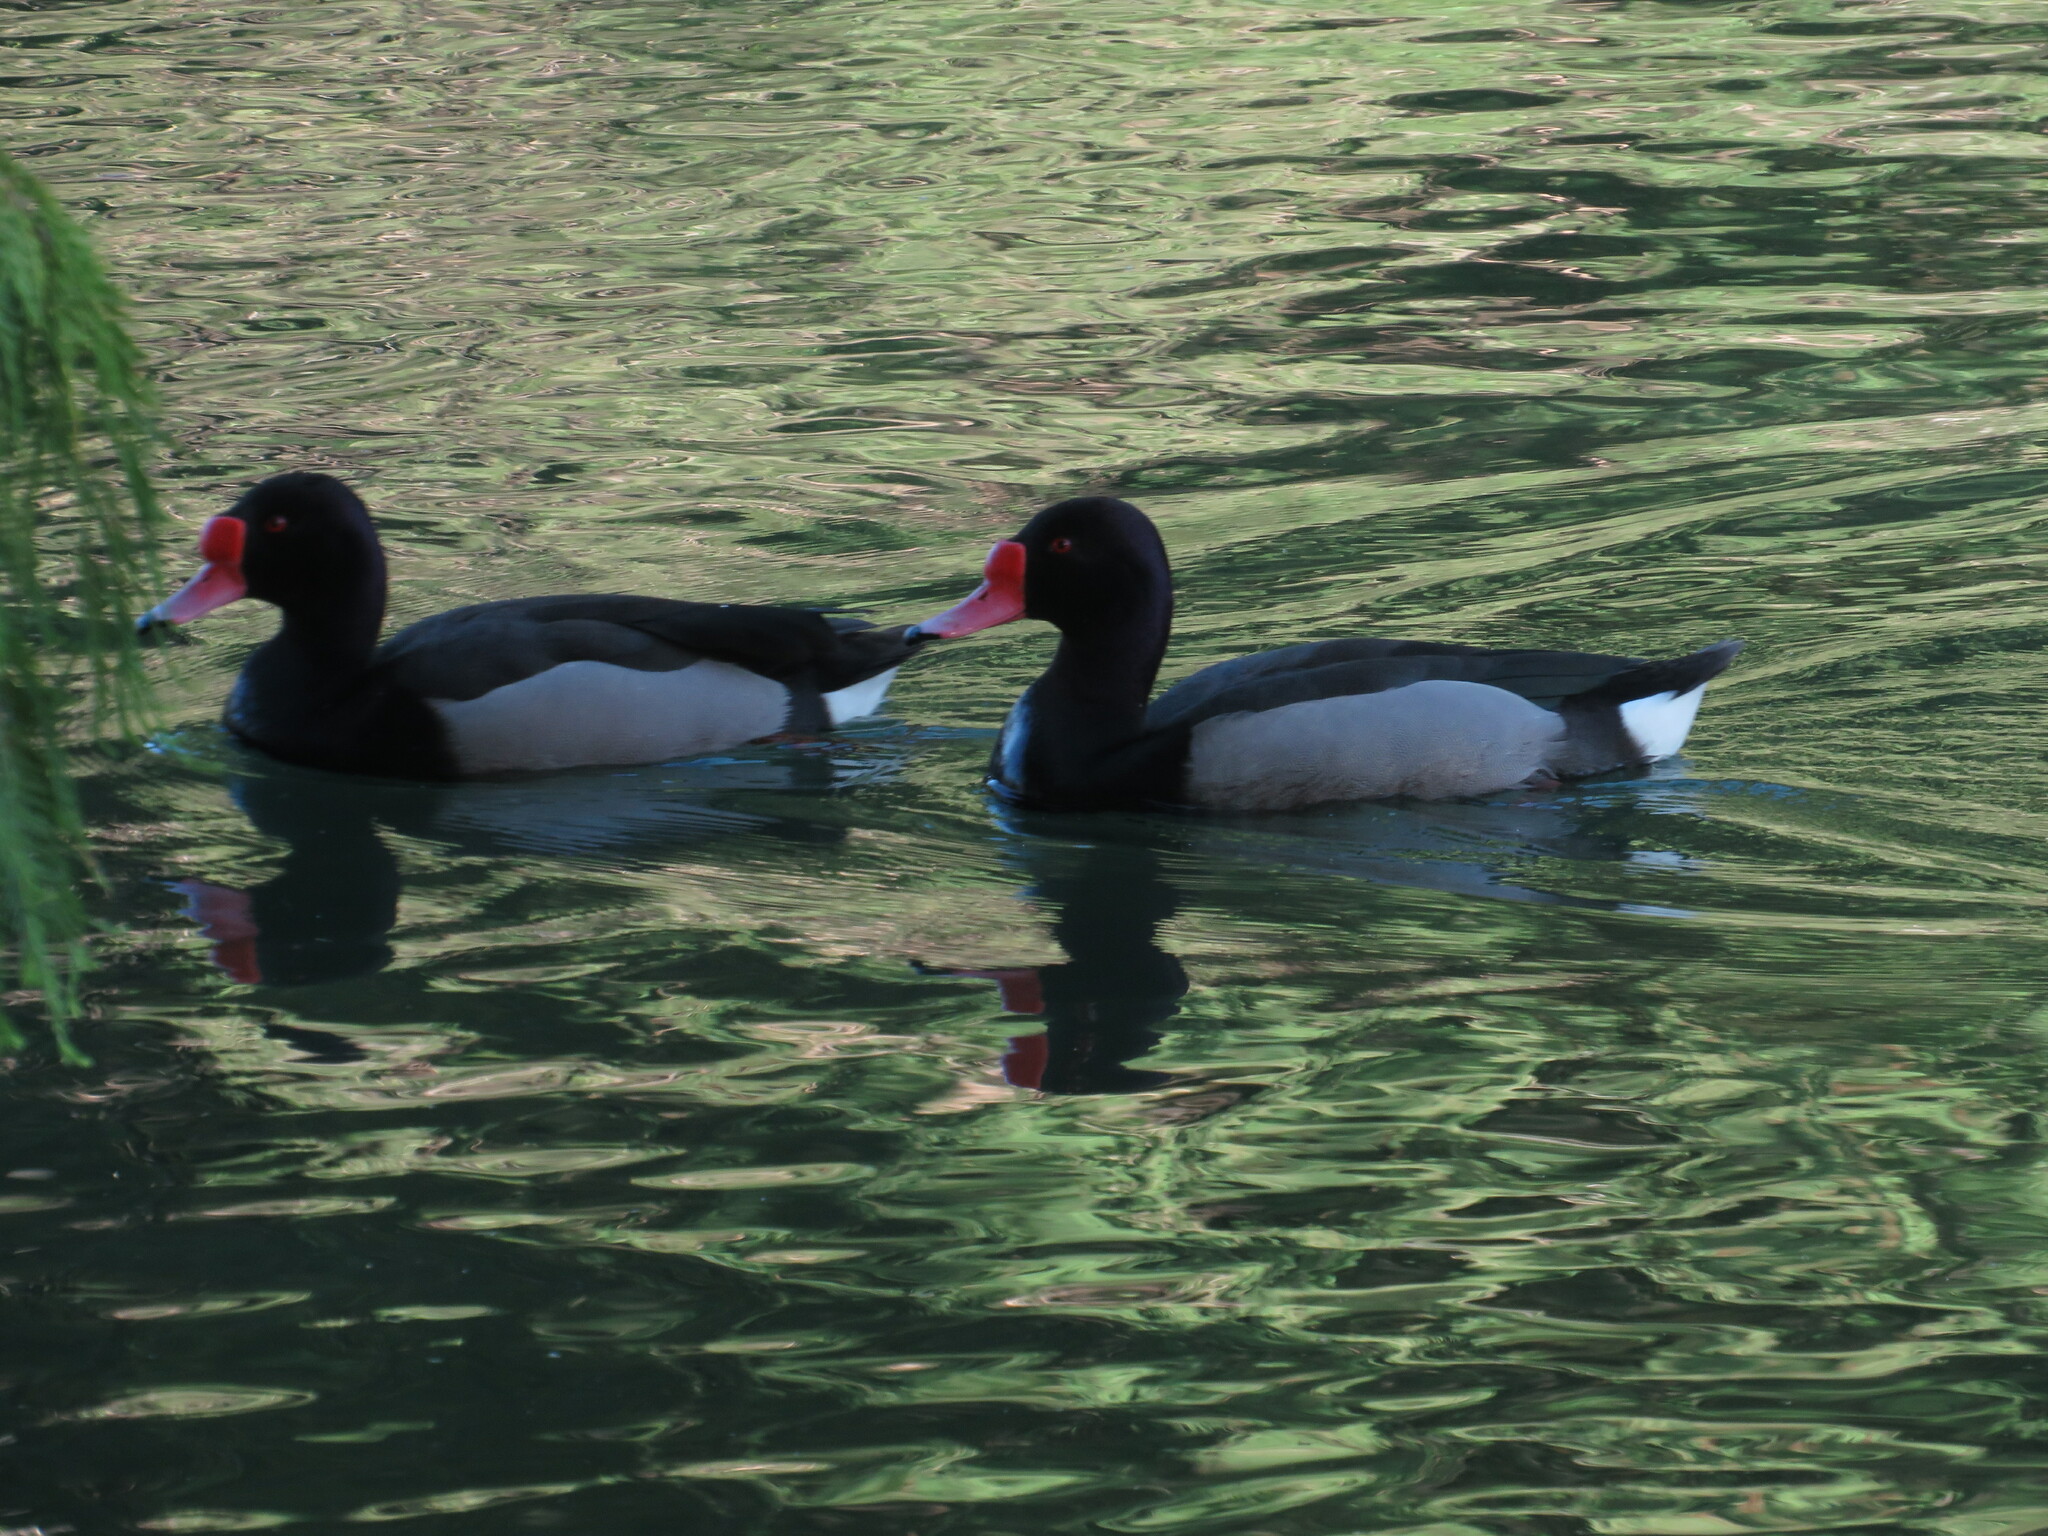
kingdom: Animalia
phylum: Chordata
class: Aves
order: Anseriformes
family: Anatidae
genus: Netta
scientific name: Netta peposaca
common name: Rosy-billed pochard
